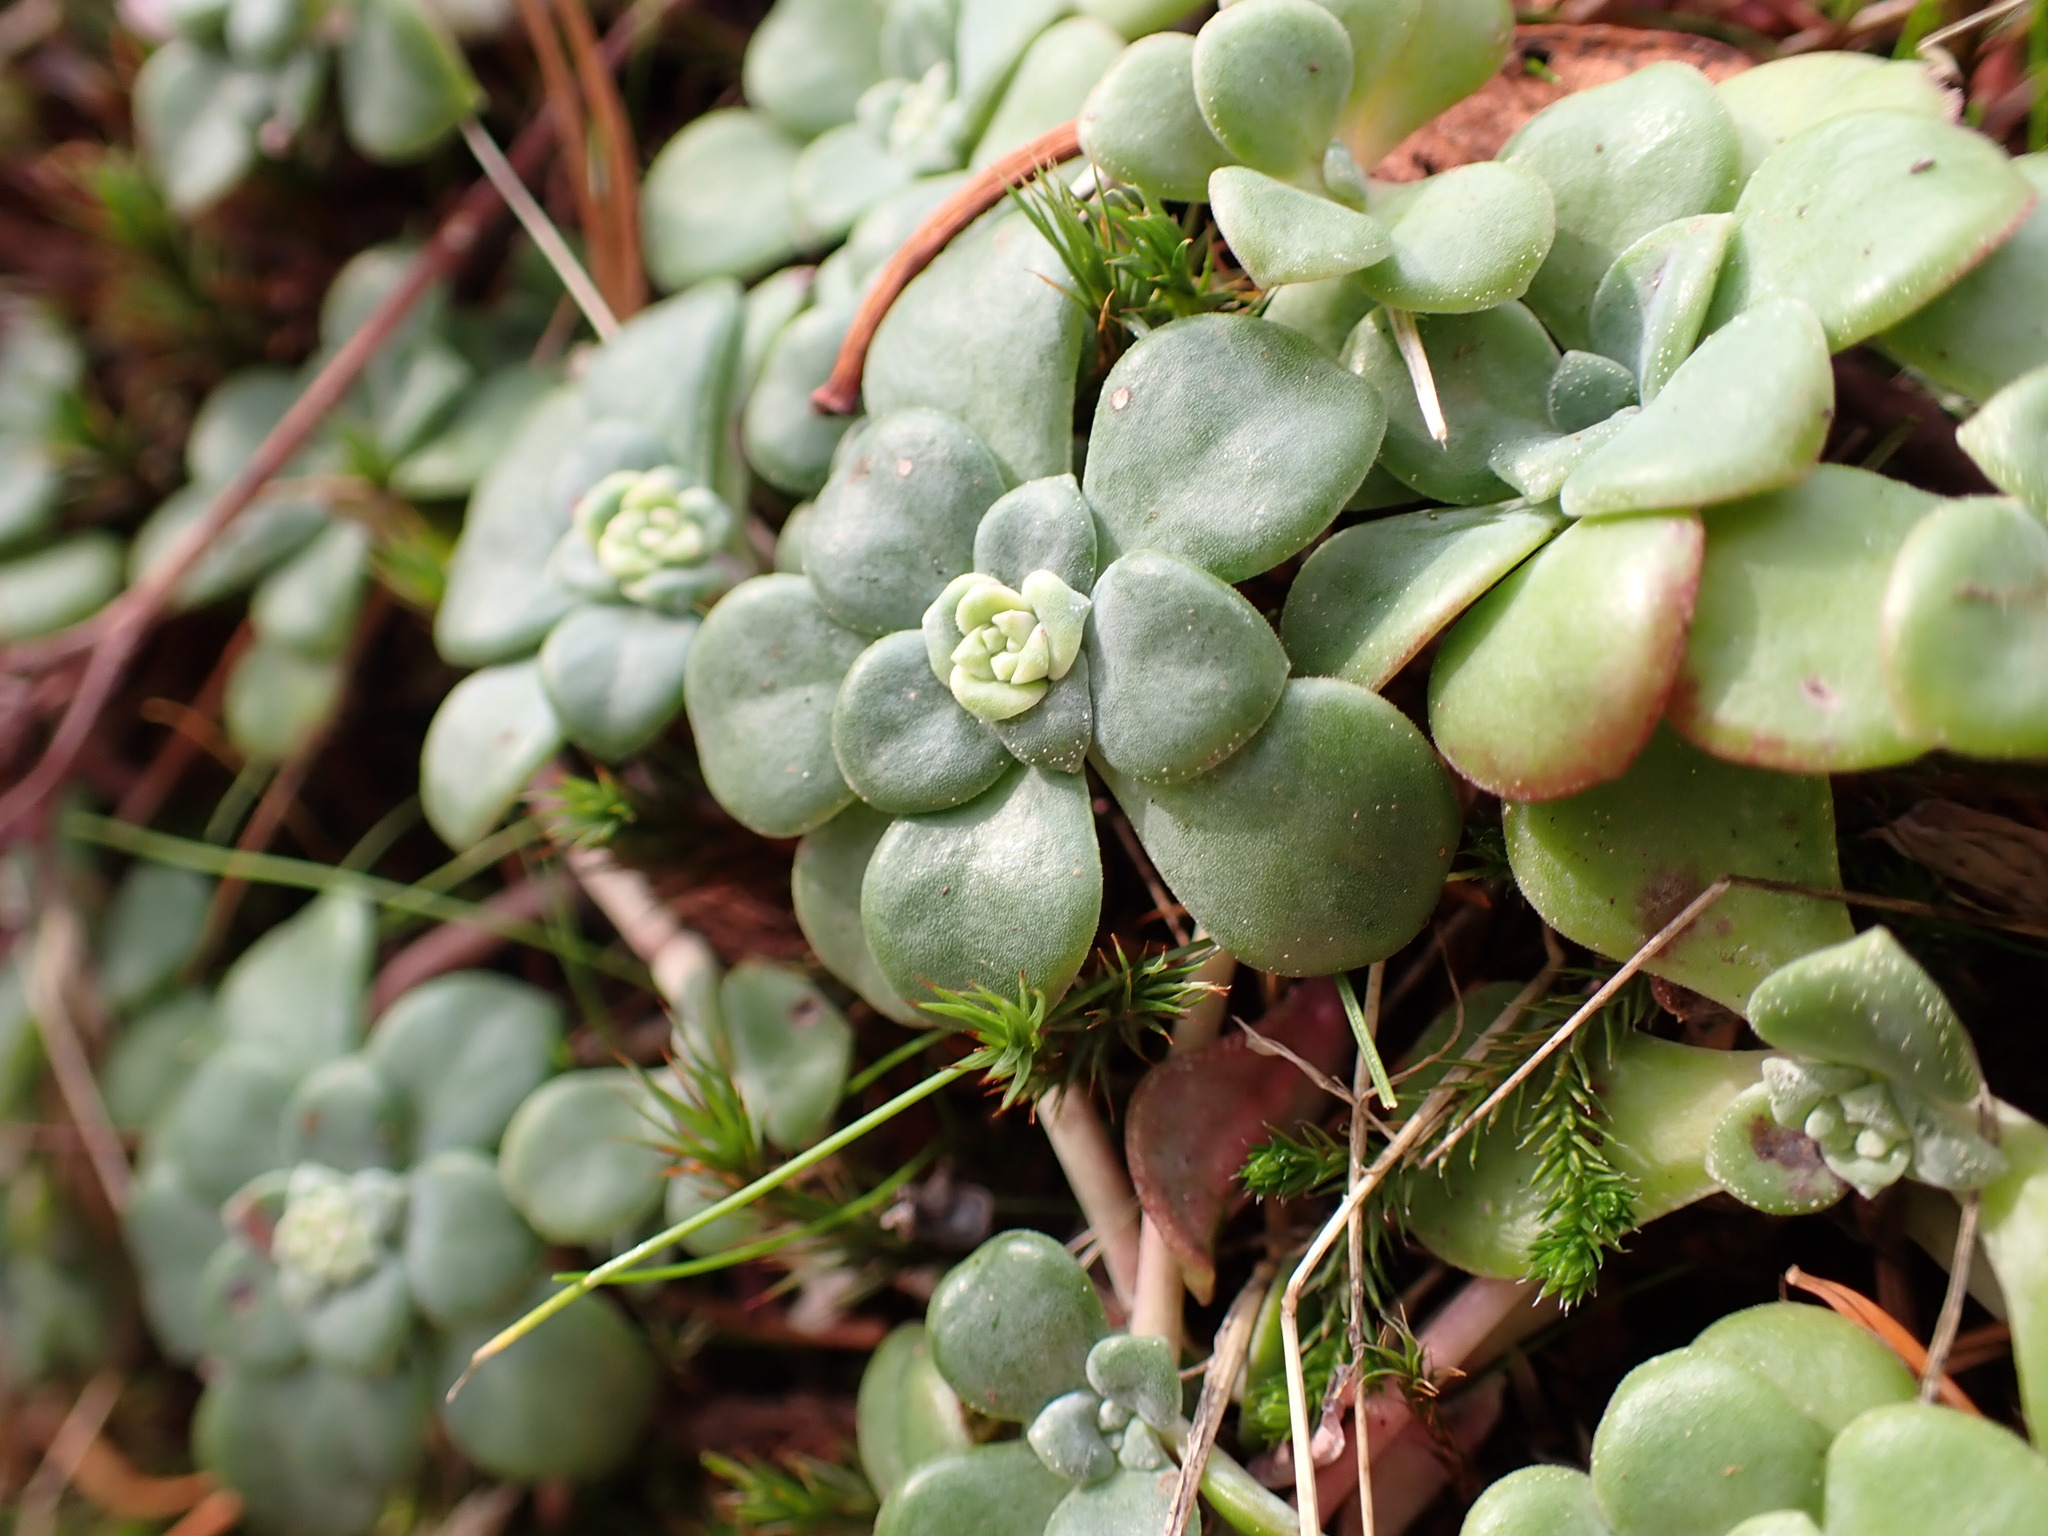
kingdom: Plantae
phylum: Tracheophyta
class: Magnoliopsida
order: Saxifragales
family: Crassulaceae
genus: Sedum
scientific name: Sedum spathulifolium
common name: Colorado stonecrop
